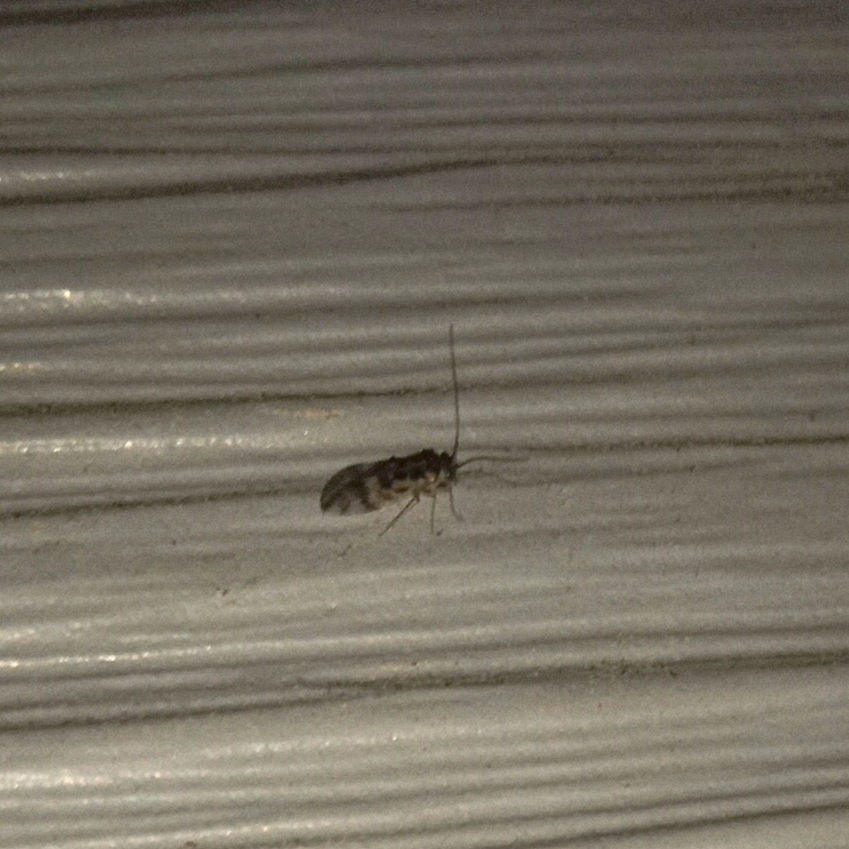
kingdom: Animalia
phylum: Arthropoda
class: Insecta
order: Psocodea
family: Stenopsocidae
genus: Graphopsocus
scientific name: Graphopsocus cruciatus
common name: Lizard bark louse
